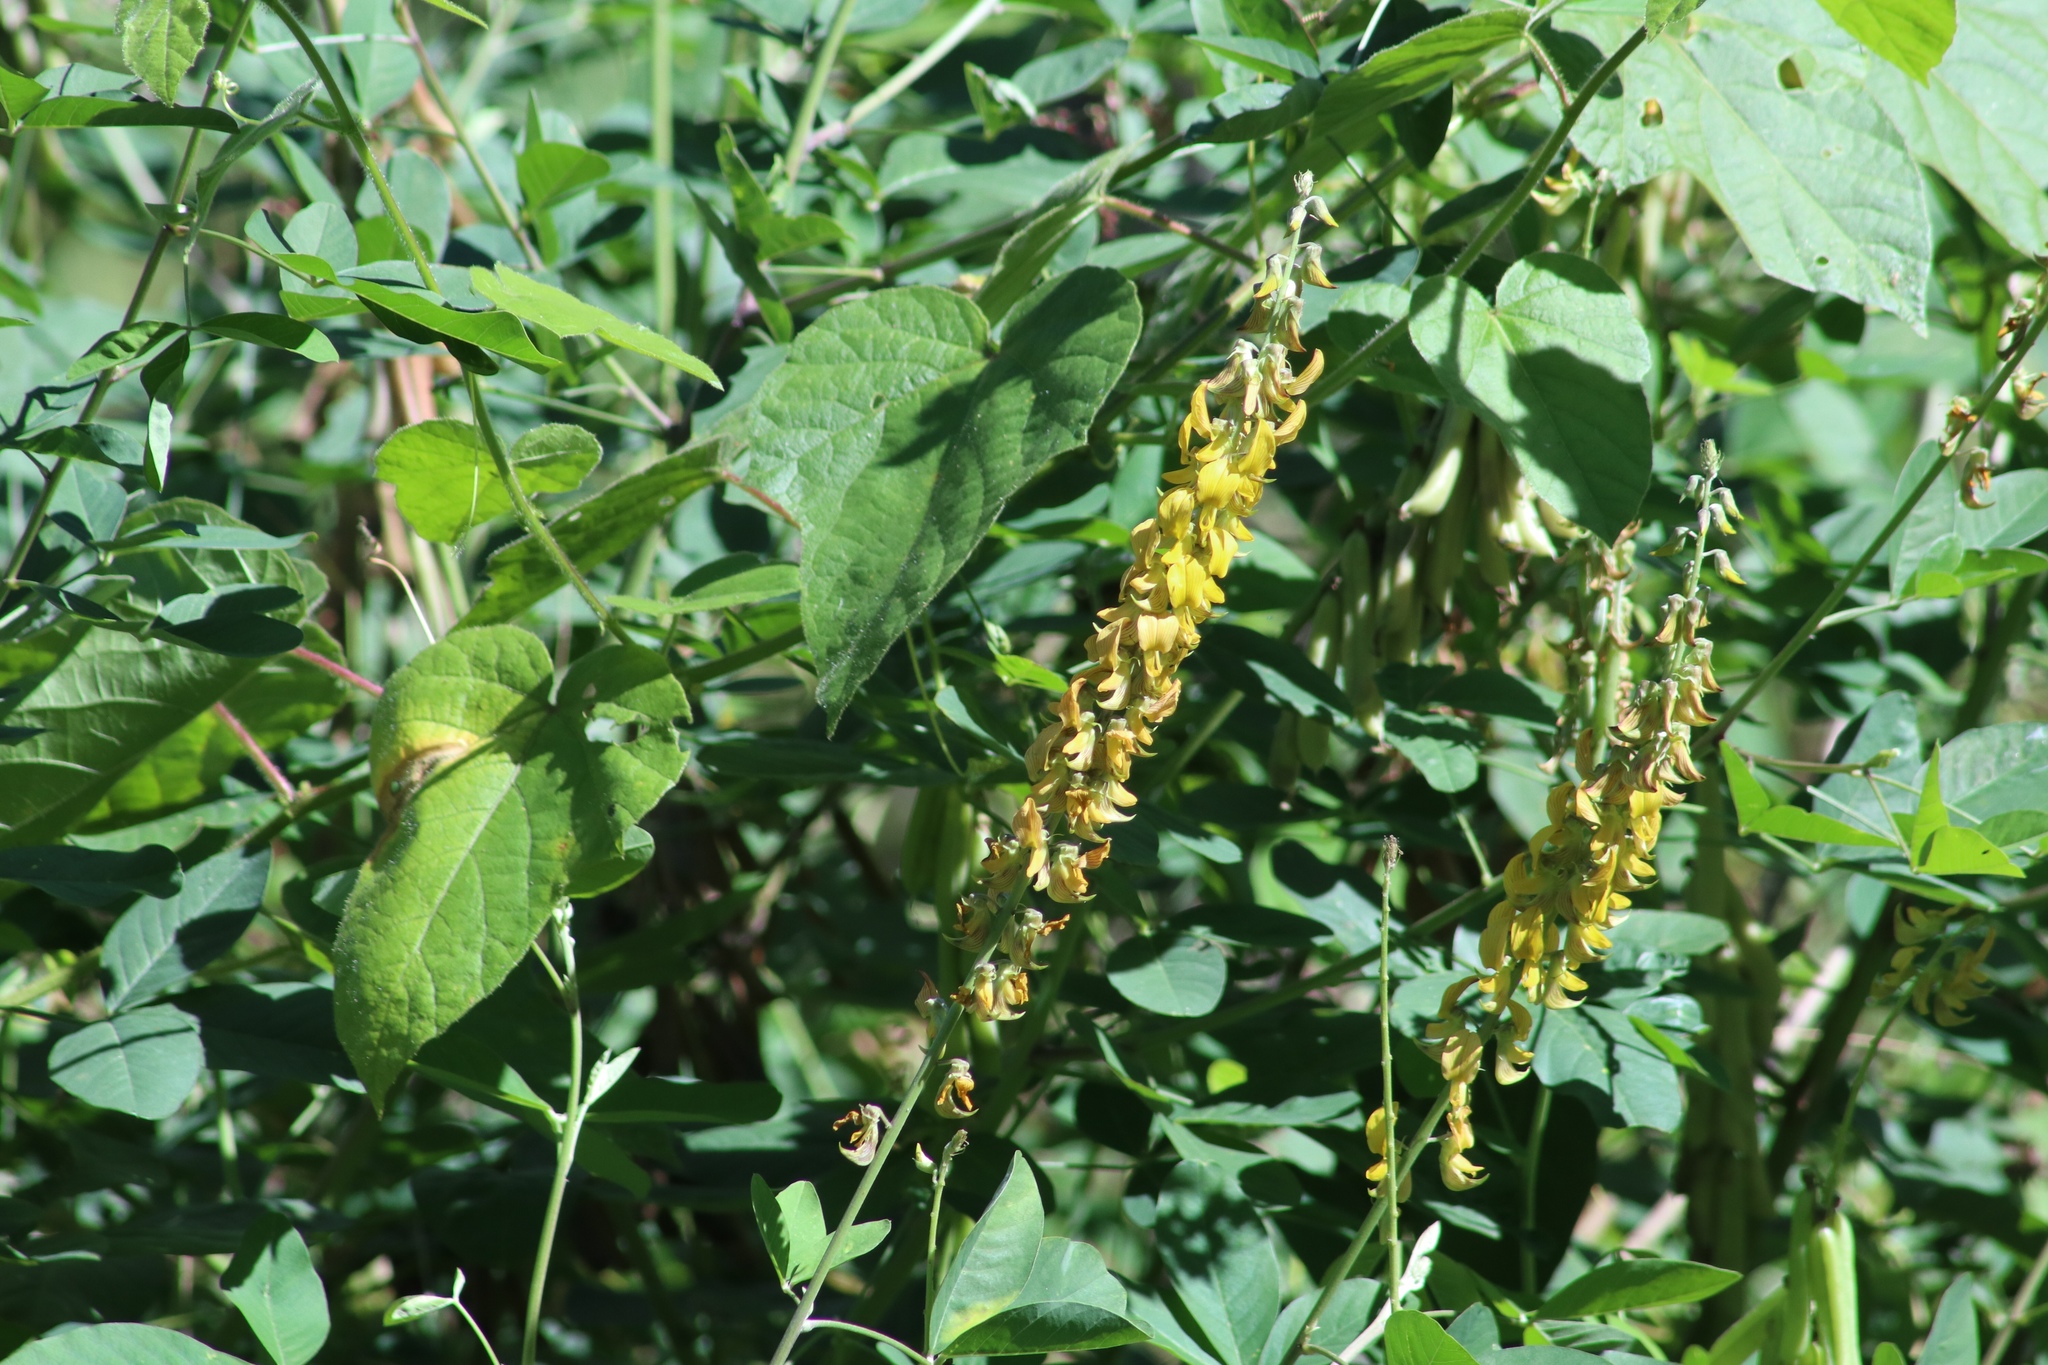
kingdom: Plantae
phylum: Tracheophyta
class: Magnoliopsida
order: Fabales
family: Fabaceae
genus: Crotalaria
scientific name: Crotalaria pallida
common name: Smooth rattlebox
